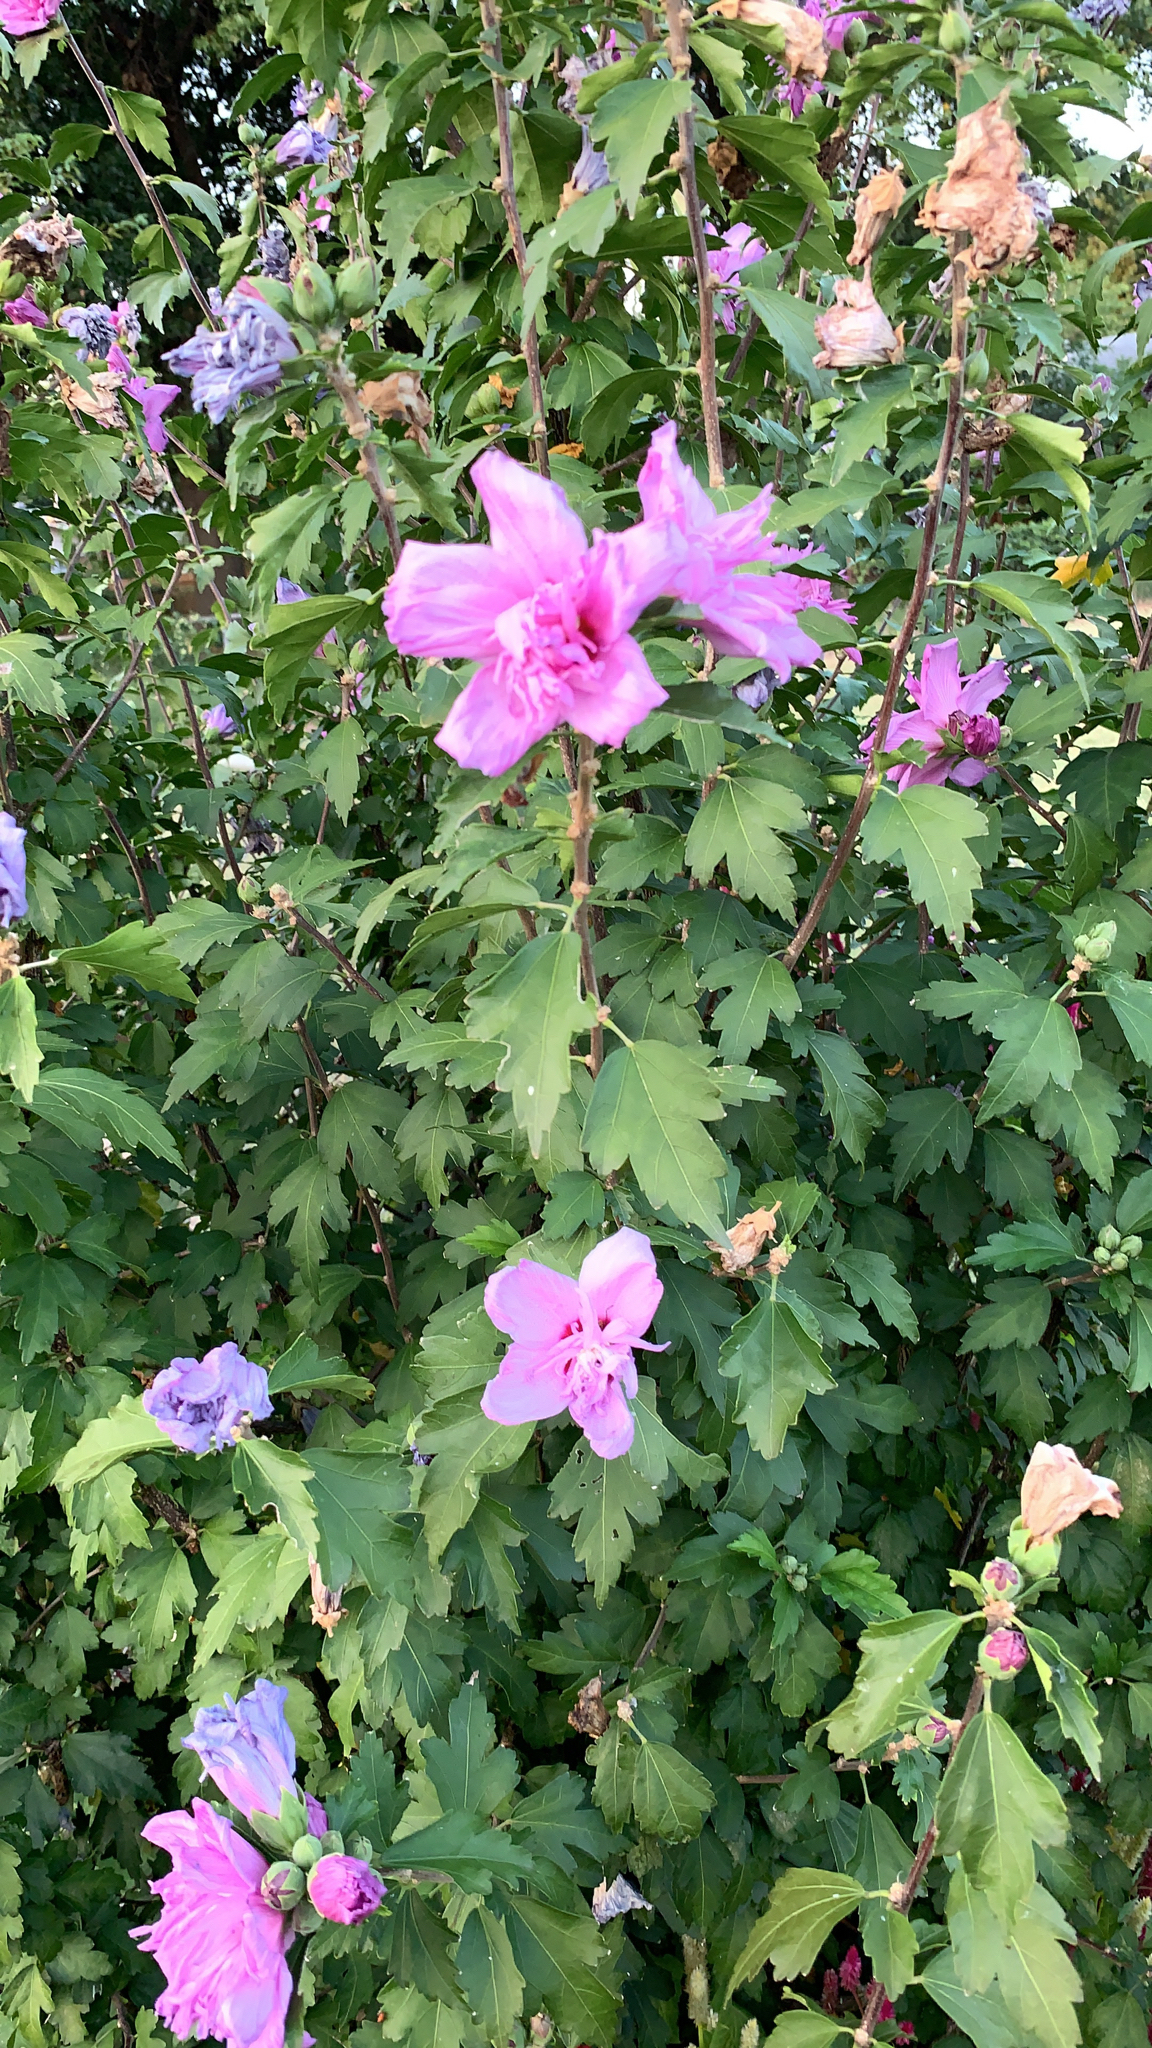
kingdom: Plantae
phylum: Tracheophyta
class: Magnoliopsida
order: Malvales
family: Malvaceae
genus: Hibiscus
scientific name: Hibiscus syriacus
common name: Syrian ketmia
